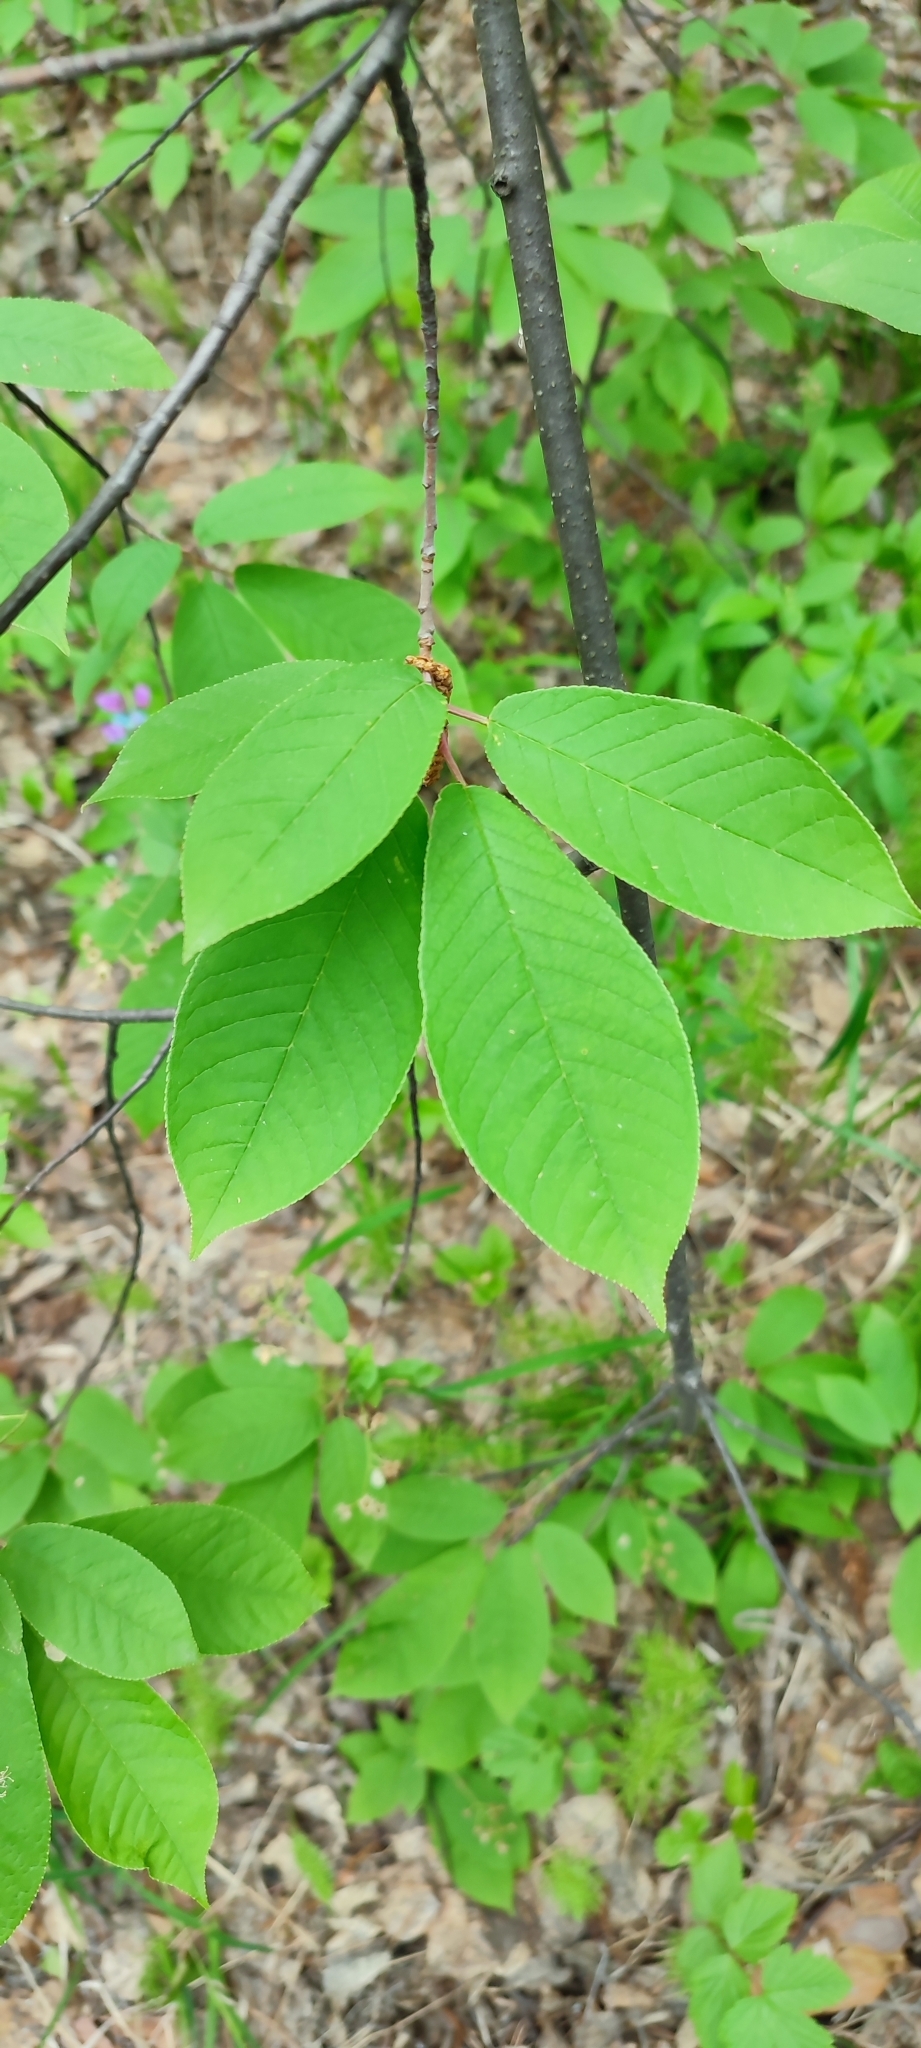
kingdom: Plantae
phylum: Tracheophyta
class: Magnoliopsida
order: Rosales
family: Rosaceae
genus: Prunus
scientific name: Prunus padus
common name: Bird cherry
